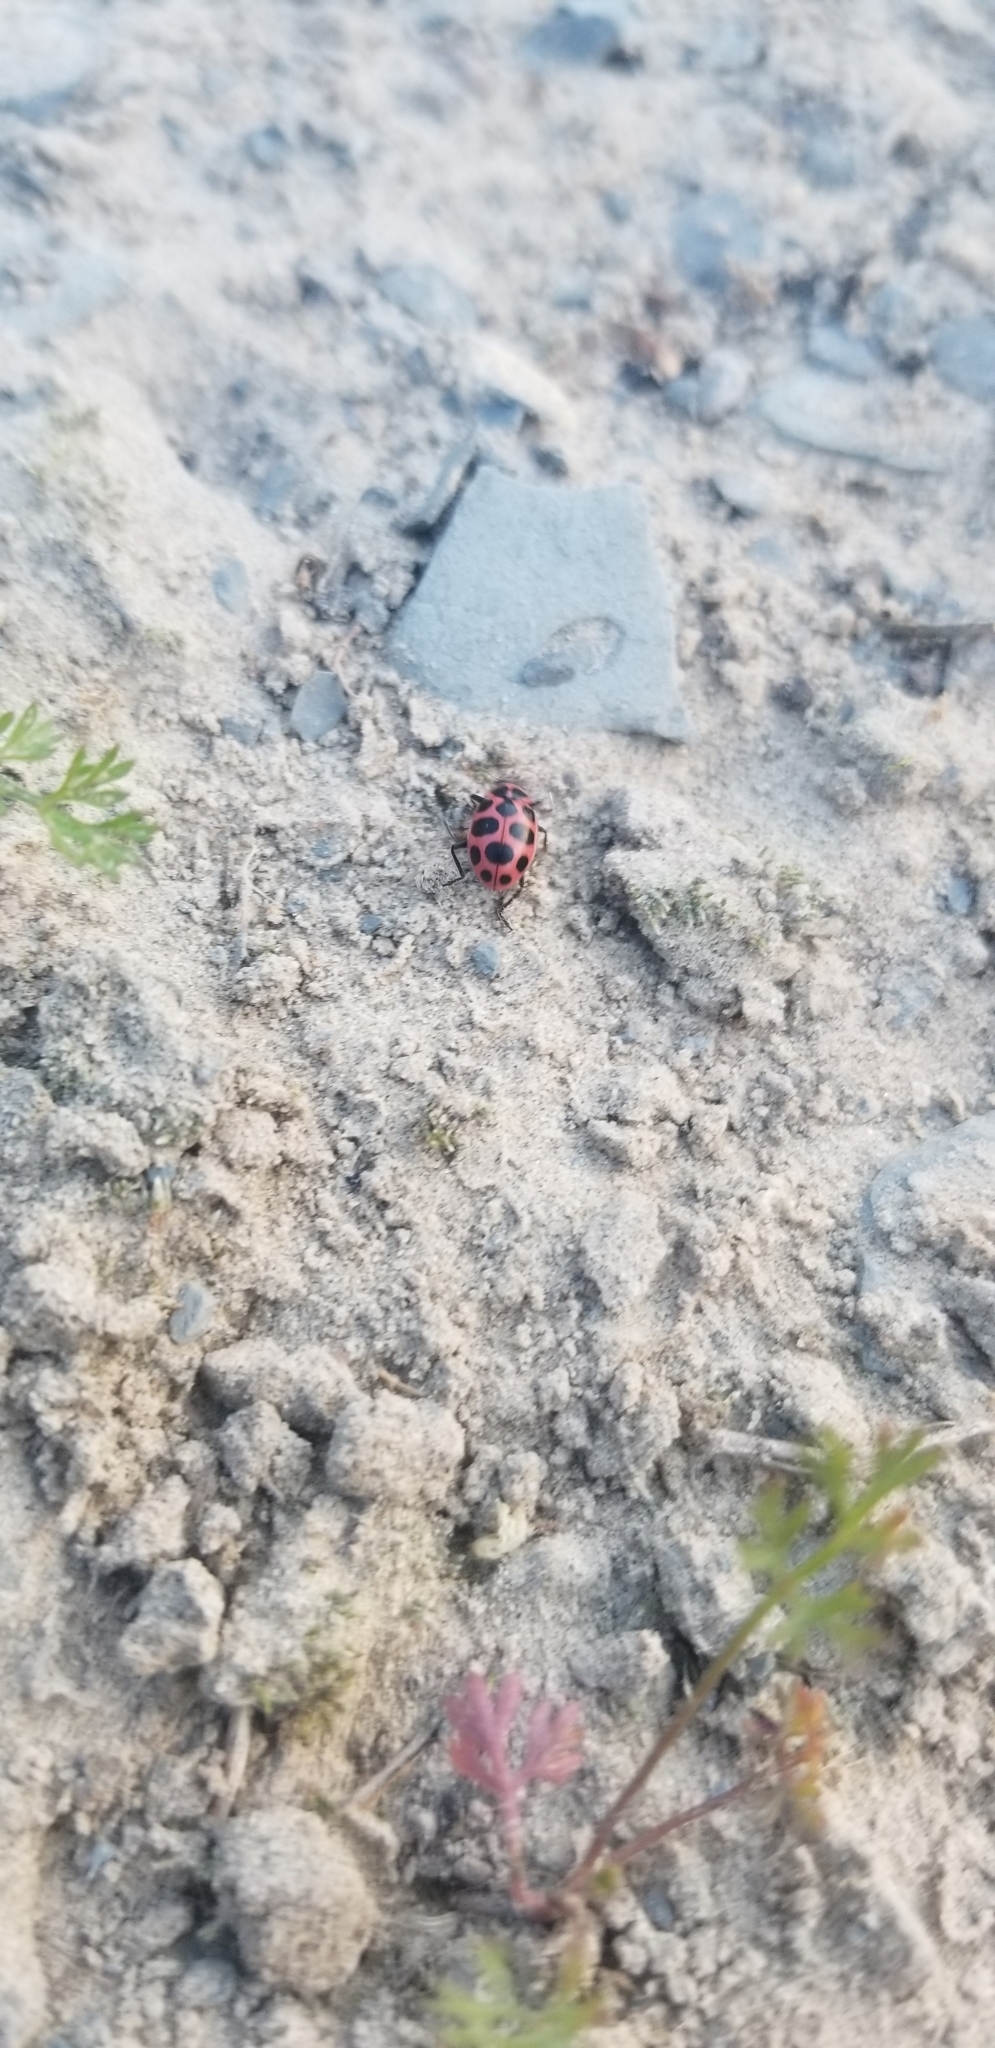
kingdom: Animalia
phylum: Arthropoda
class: Insecta
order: Coleoptera
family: Coccinellidae
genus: Coleomegilla
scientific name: Coleomegilla maculata
